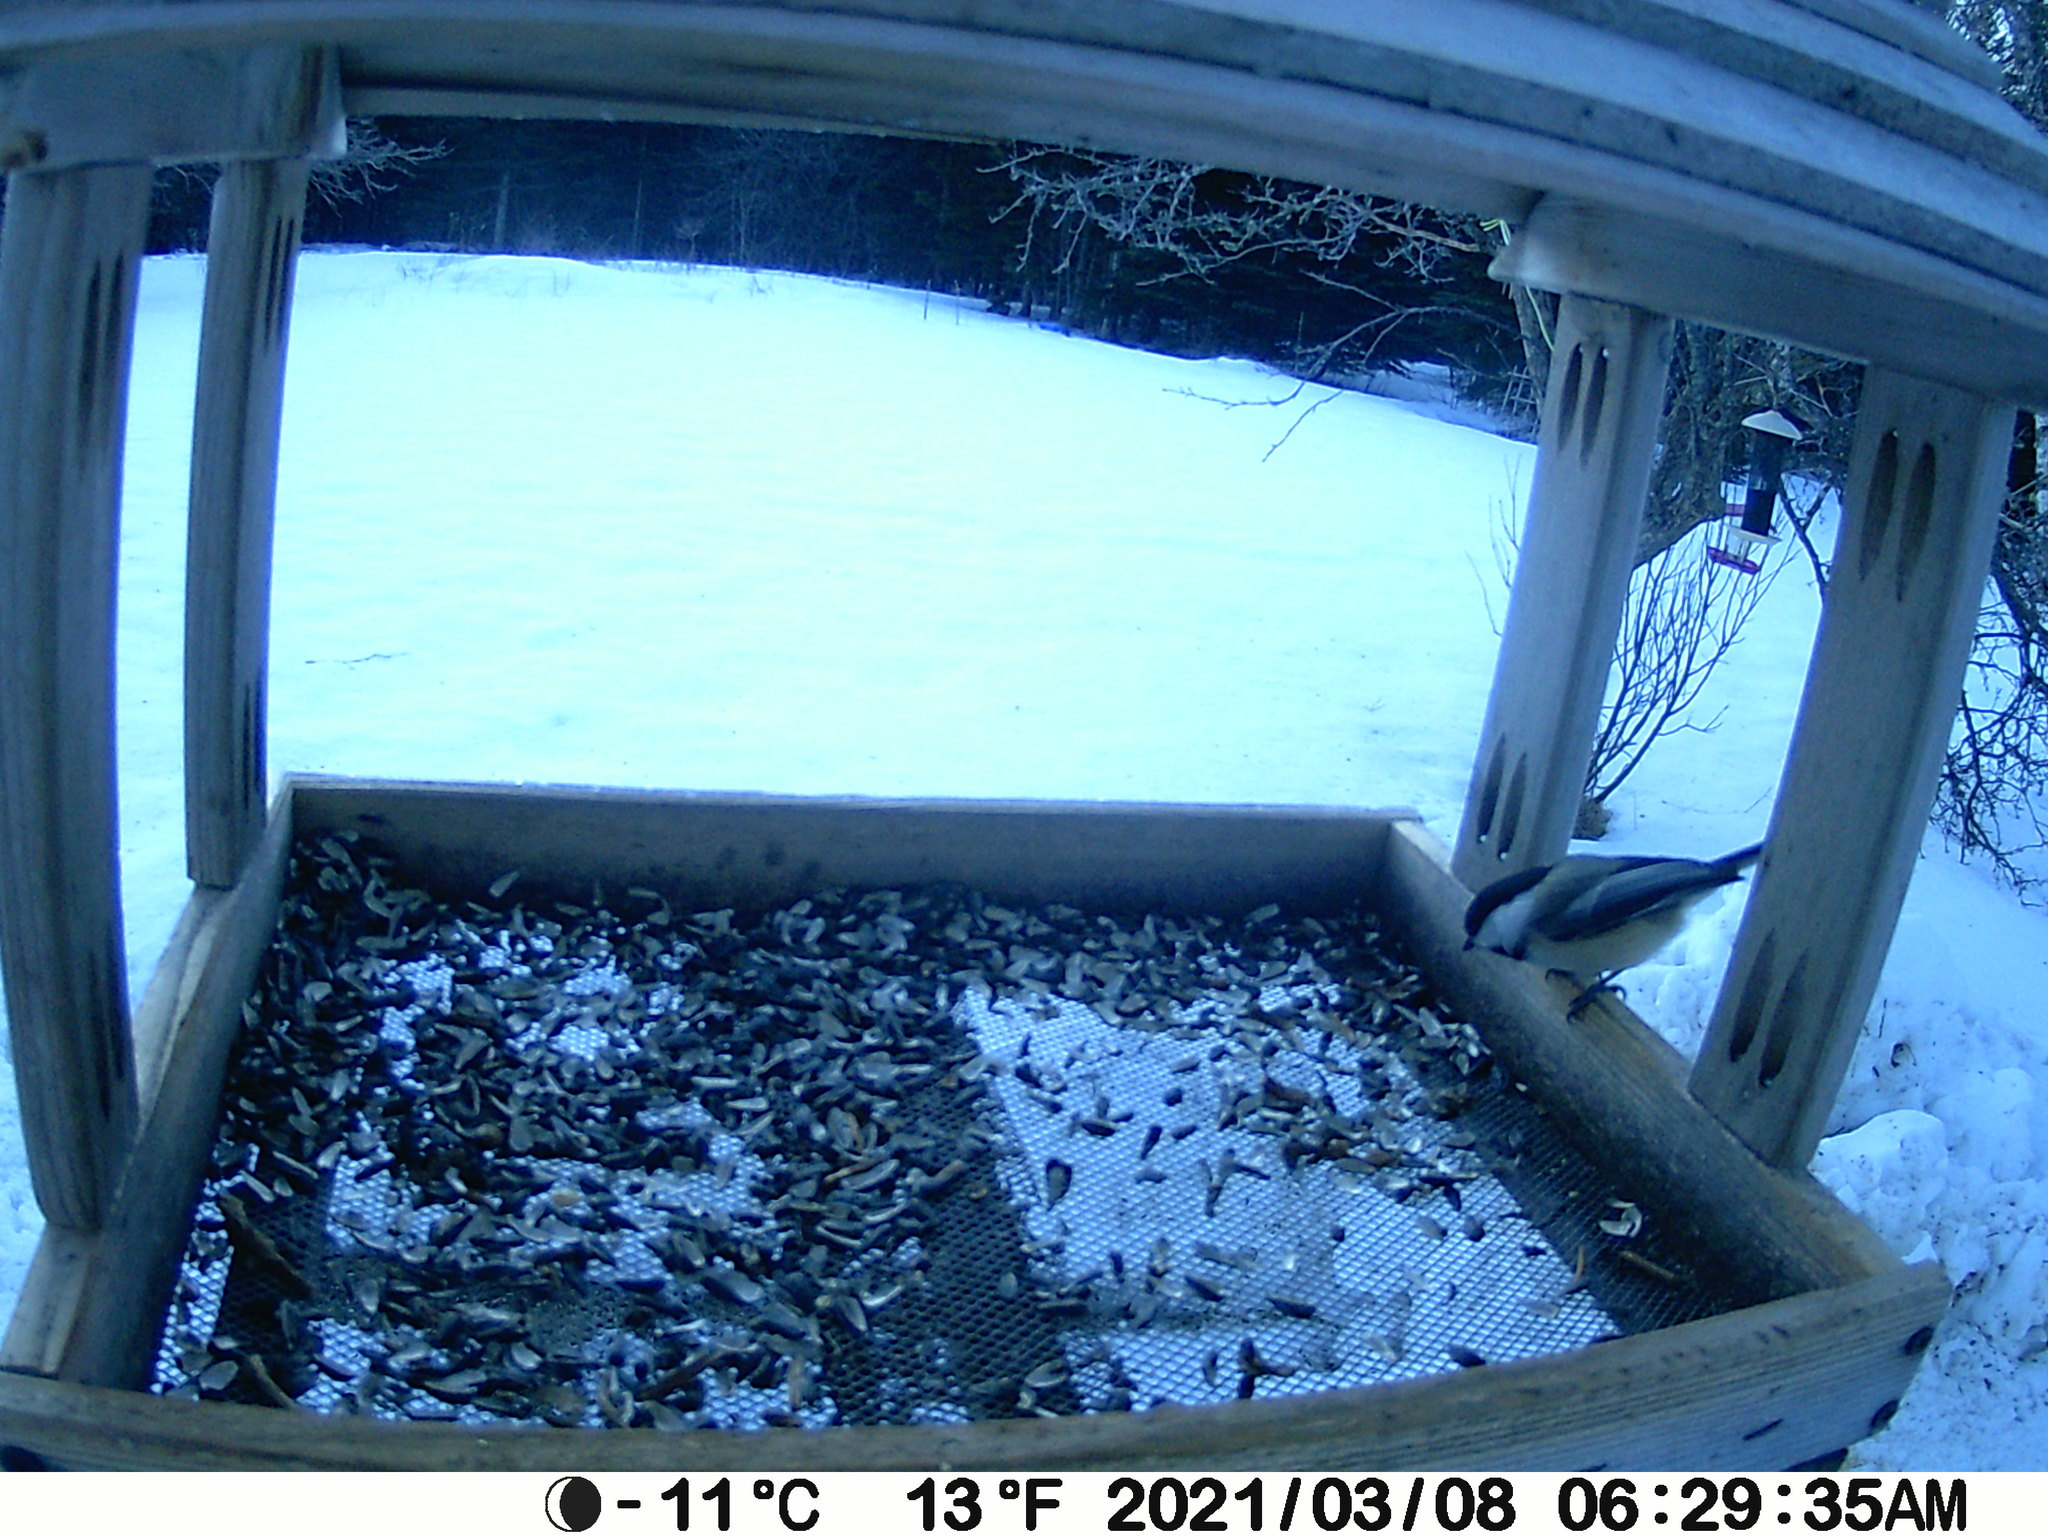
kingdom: Animalia
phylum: Chordata
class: Aves
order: Passeriformes
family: Paridae
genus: Poecile
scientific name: Poecile atricapillus
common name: Black-capped chickadee
